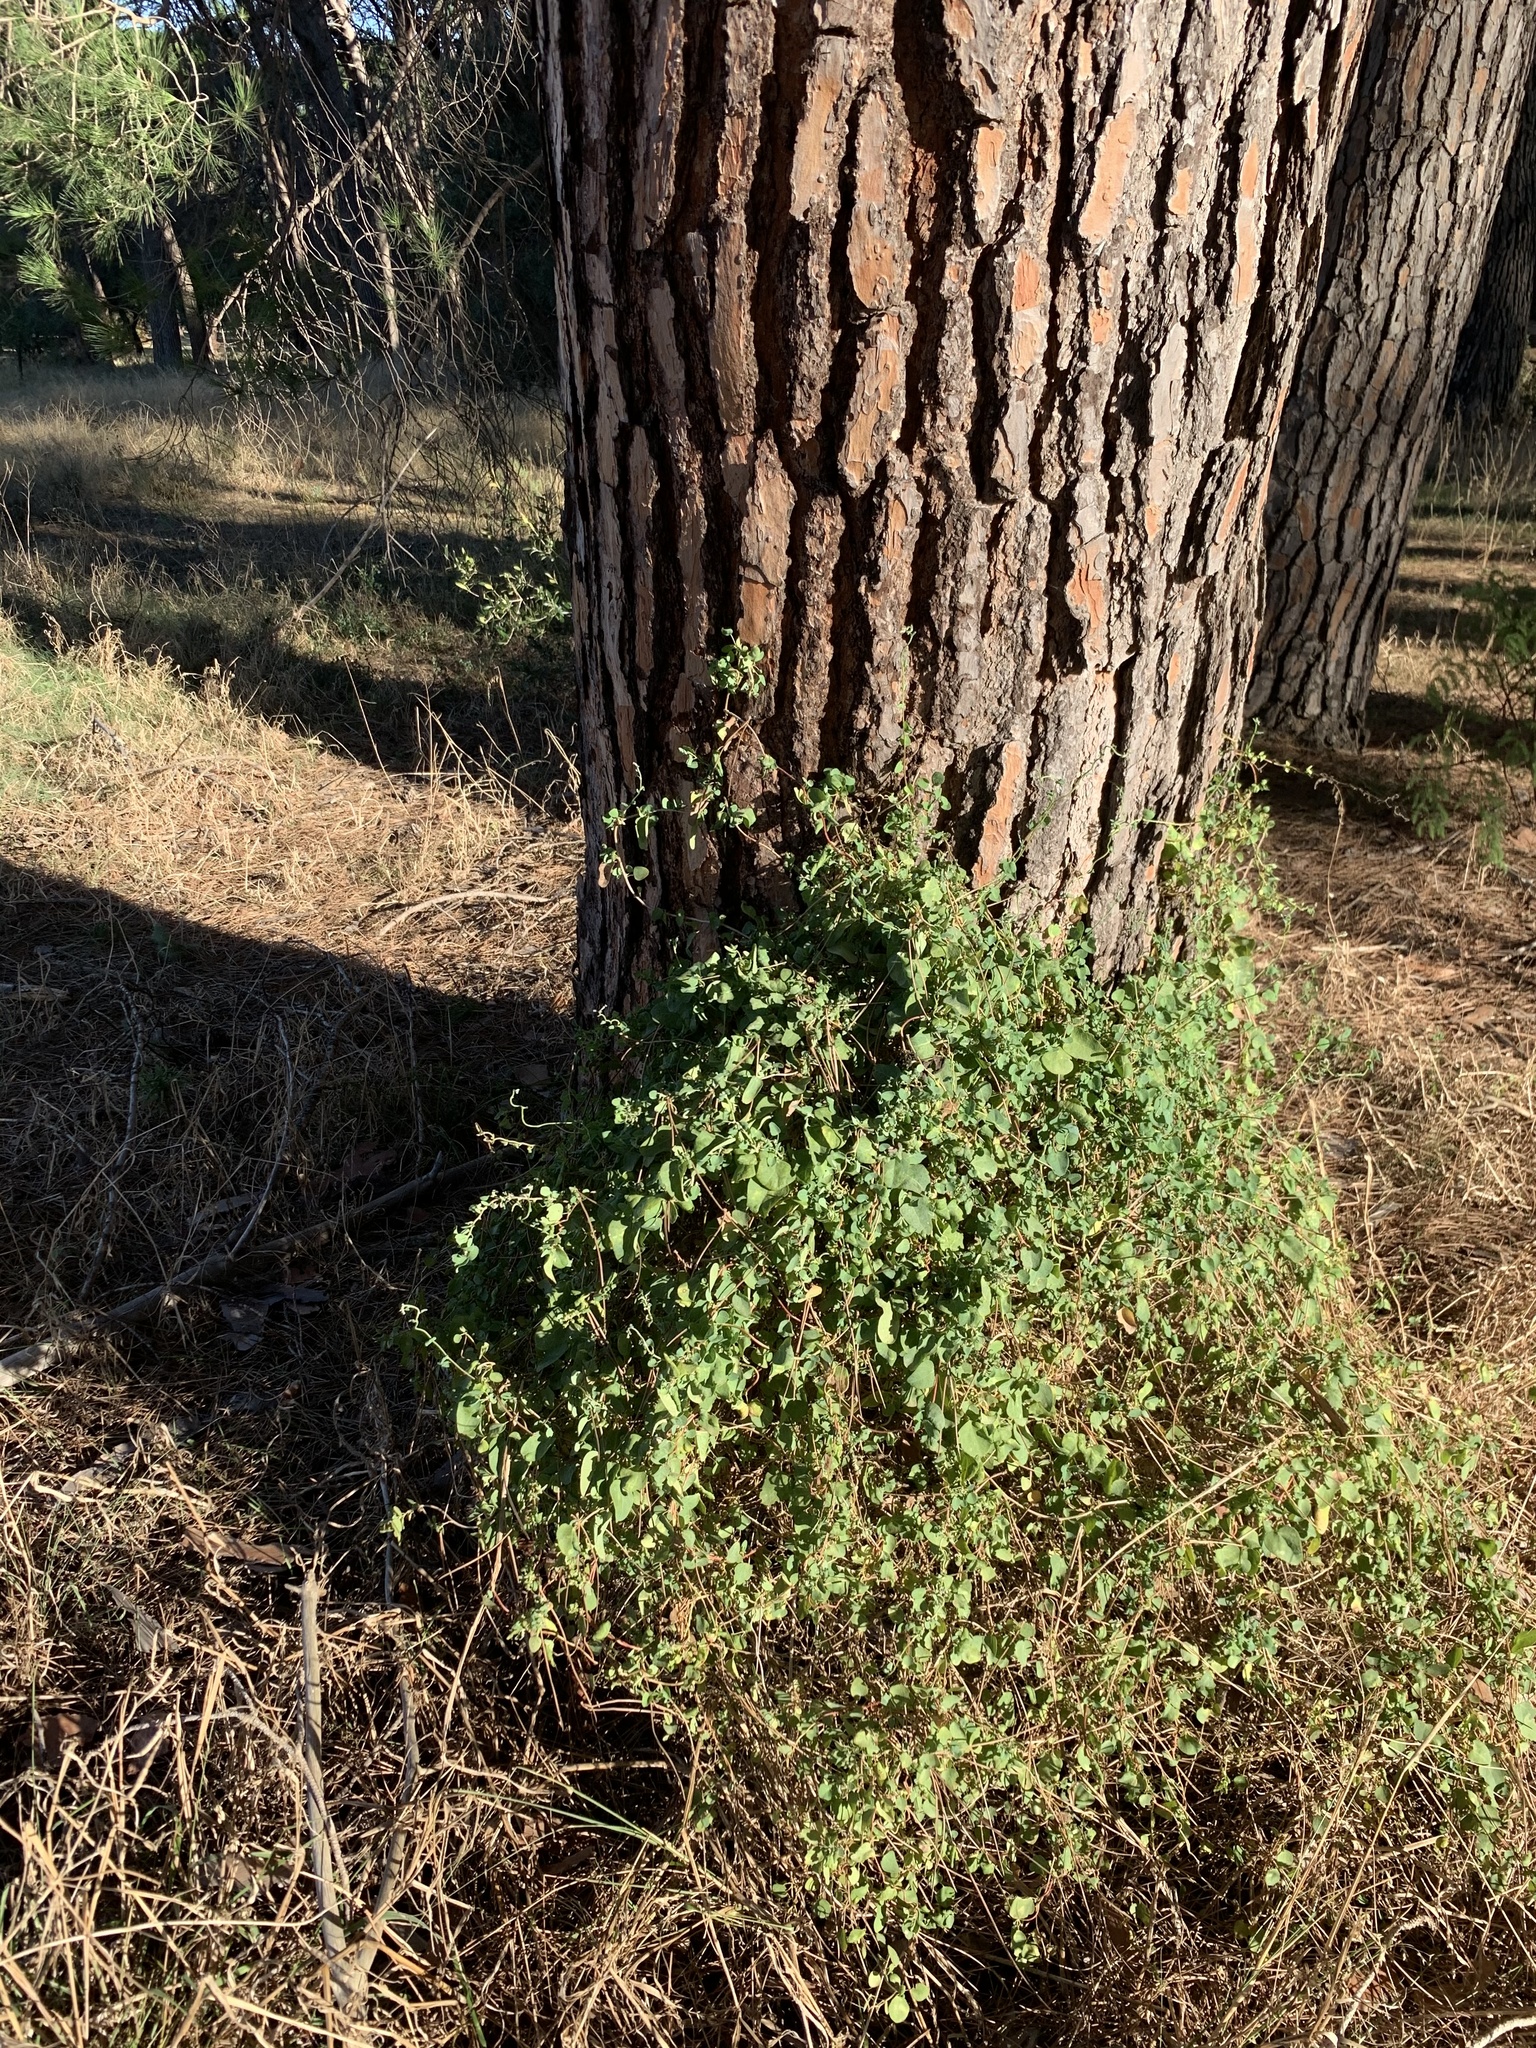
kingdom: Plantae
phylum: Tracheophyta
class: Magnoliopsida
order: Ranunculales
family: Menispermaceae
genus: Cissampelos
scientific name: Cissampelos capensis
